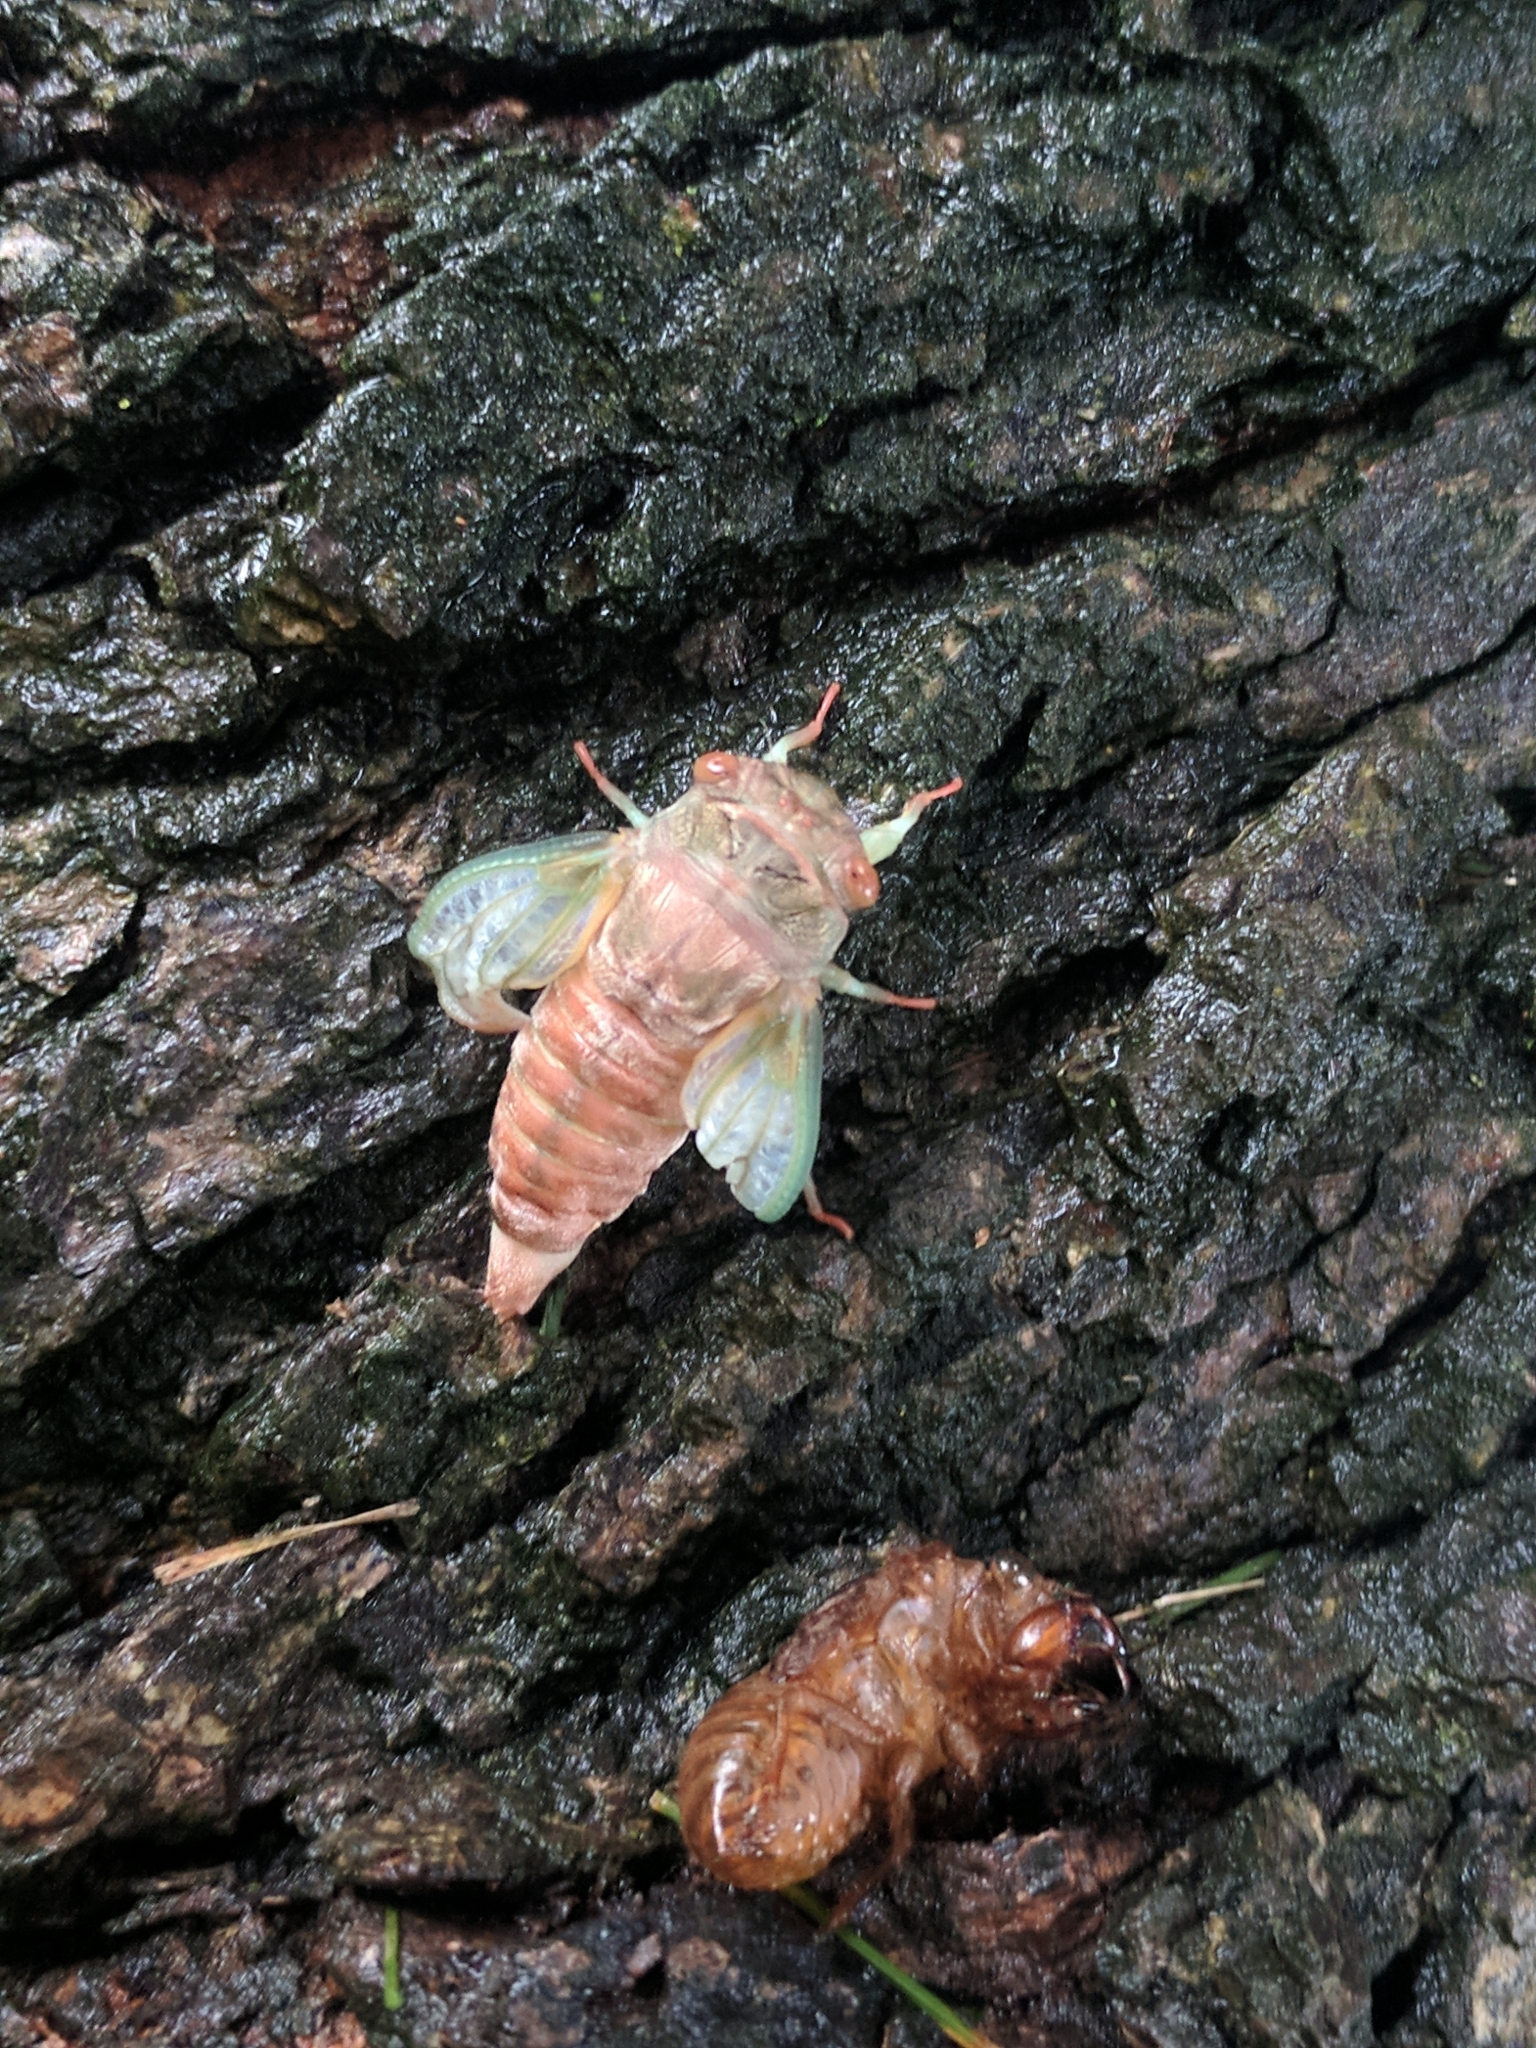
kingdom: Animalia
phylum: Arthropoda
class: Insecta
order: Hemiptera
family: Cicadidae
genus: Neotibicen
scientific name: Neotibicen canicularis
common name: God-day cicada
